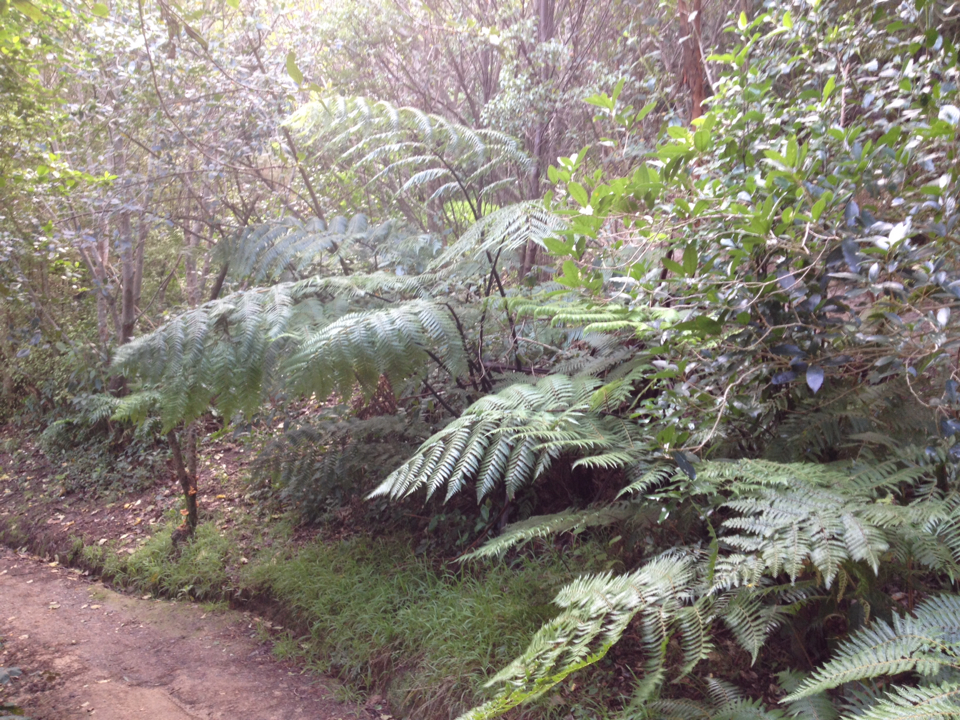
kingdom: Plantae
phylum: Tracheophyta
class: Polypodiopsida
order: Cyatheales
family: Cyatheaceae
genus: Sphaeropteris
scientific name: Sphaeropteris medullaris
